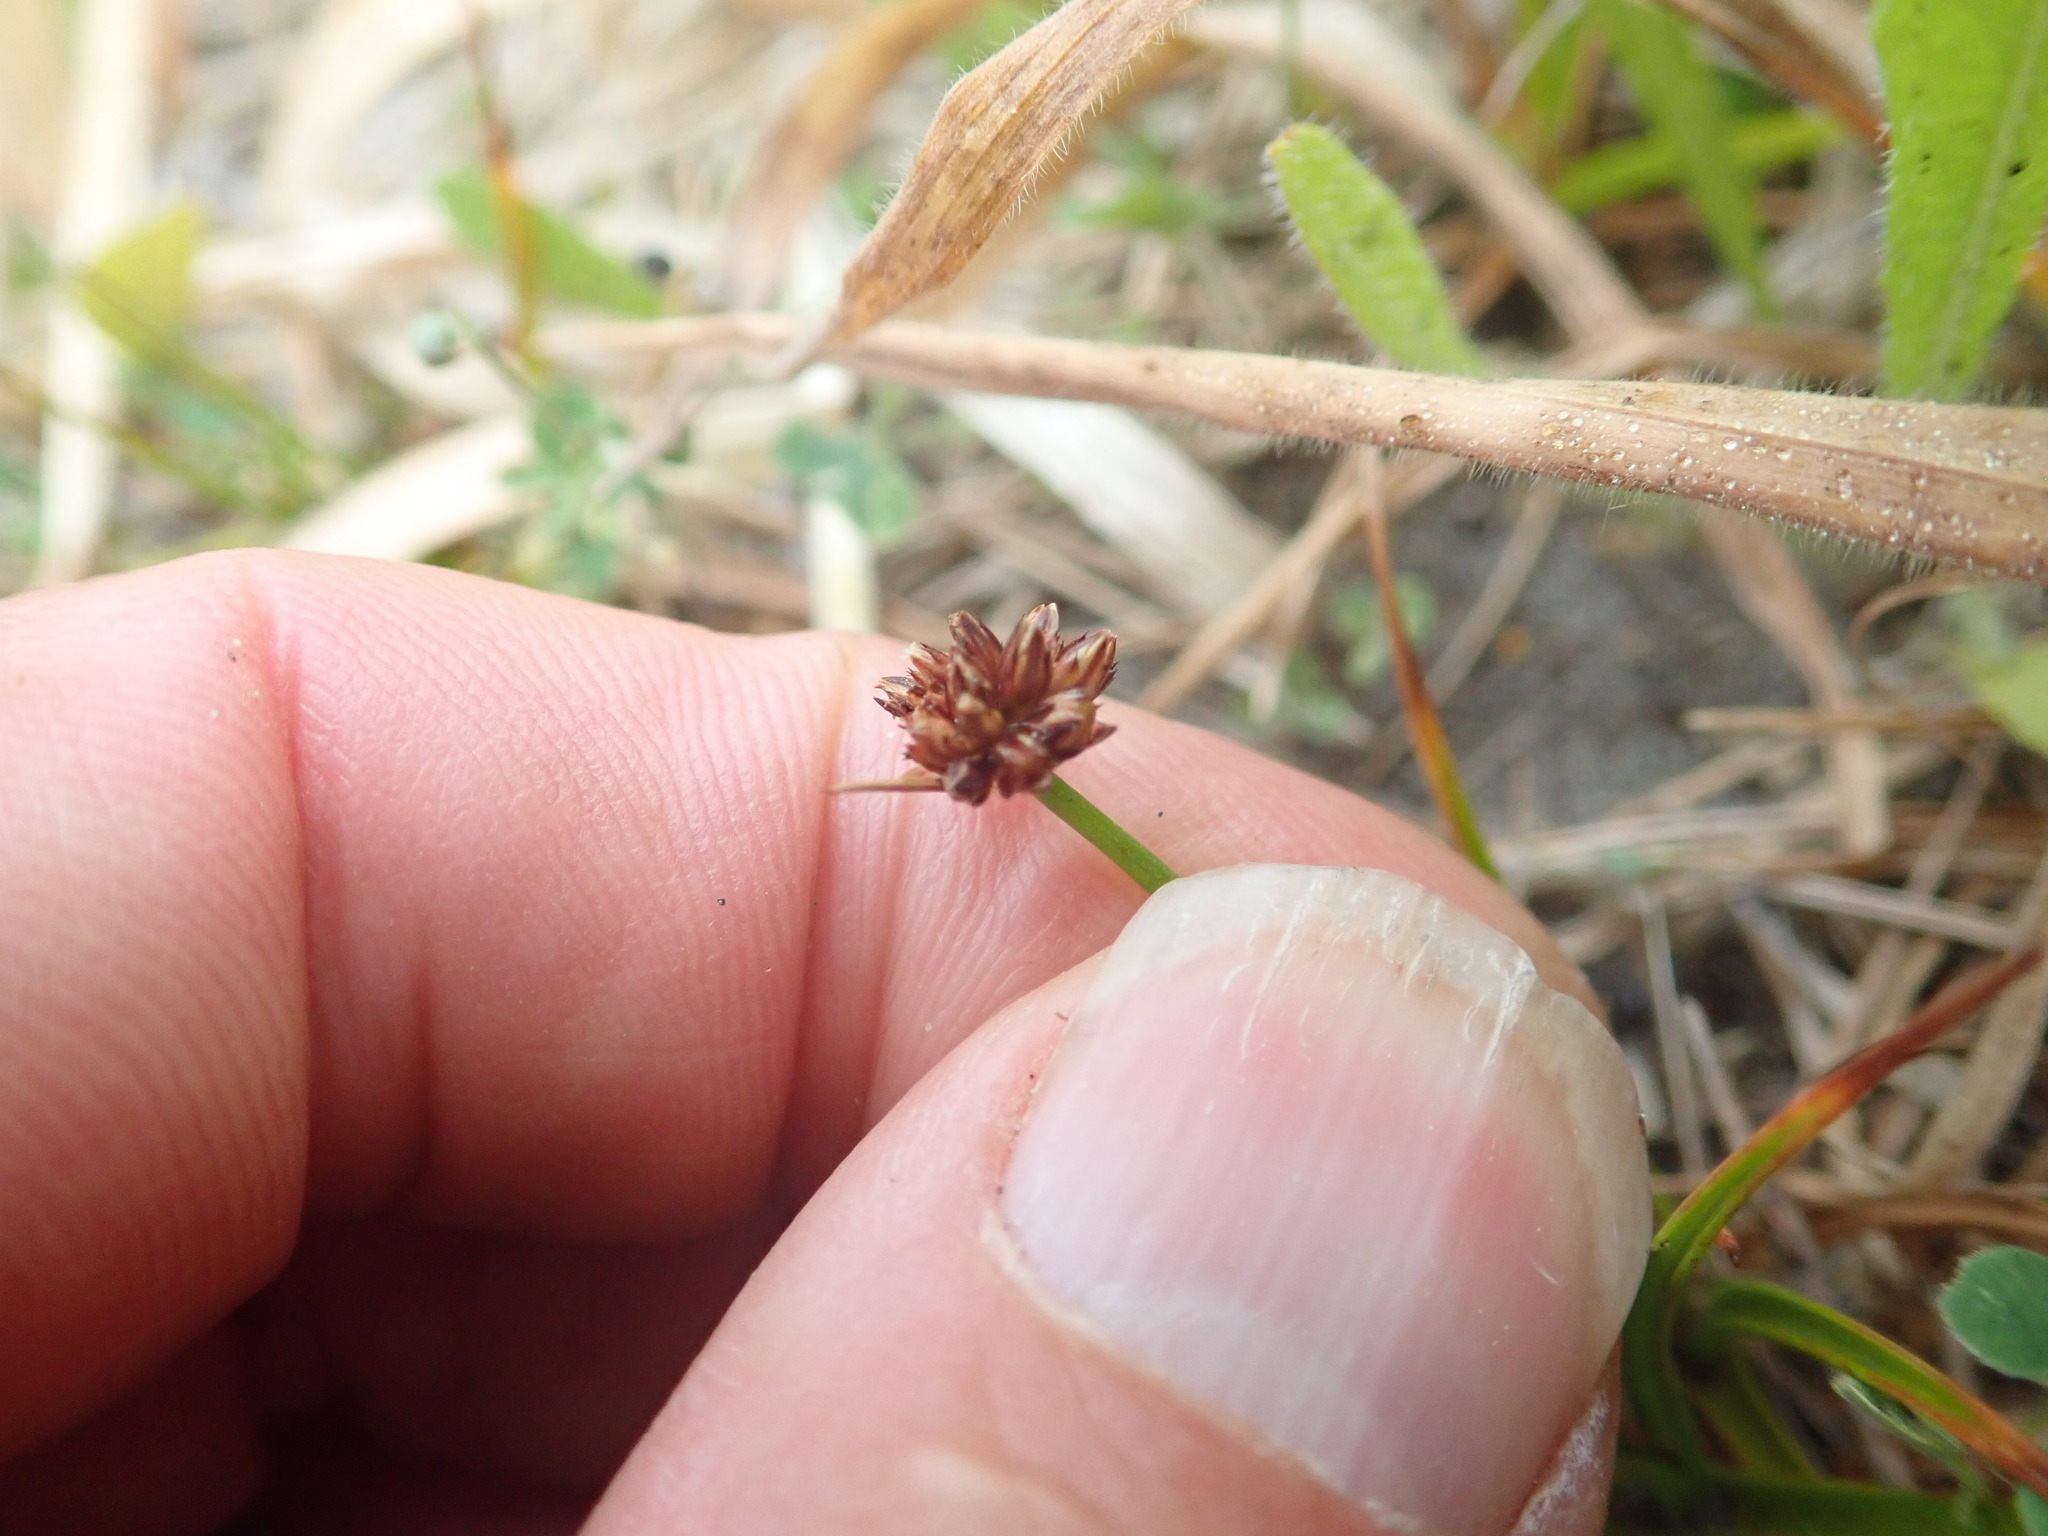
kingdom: Plantae
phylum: Tracheophyta
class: Liliopsida
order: Poales
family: Juncaceae
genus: Juncus
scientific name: Juncus caespiticius
